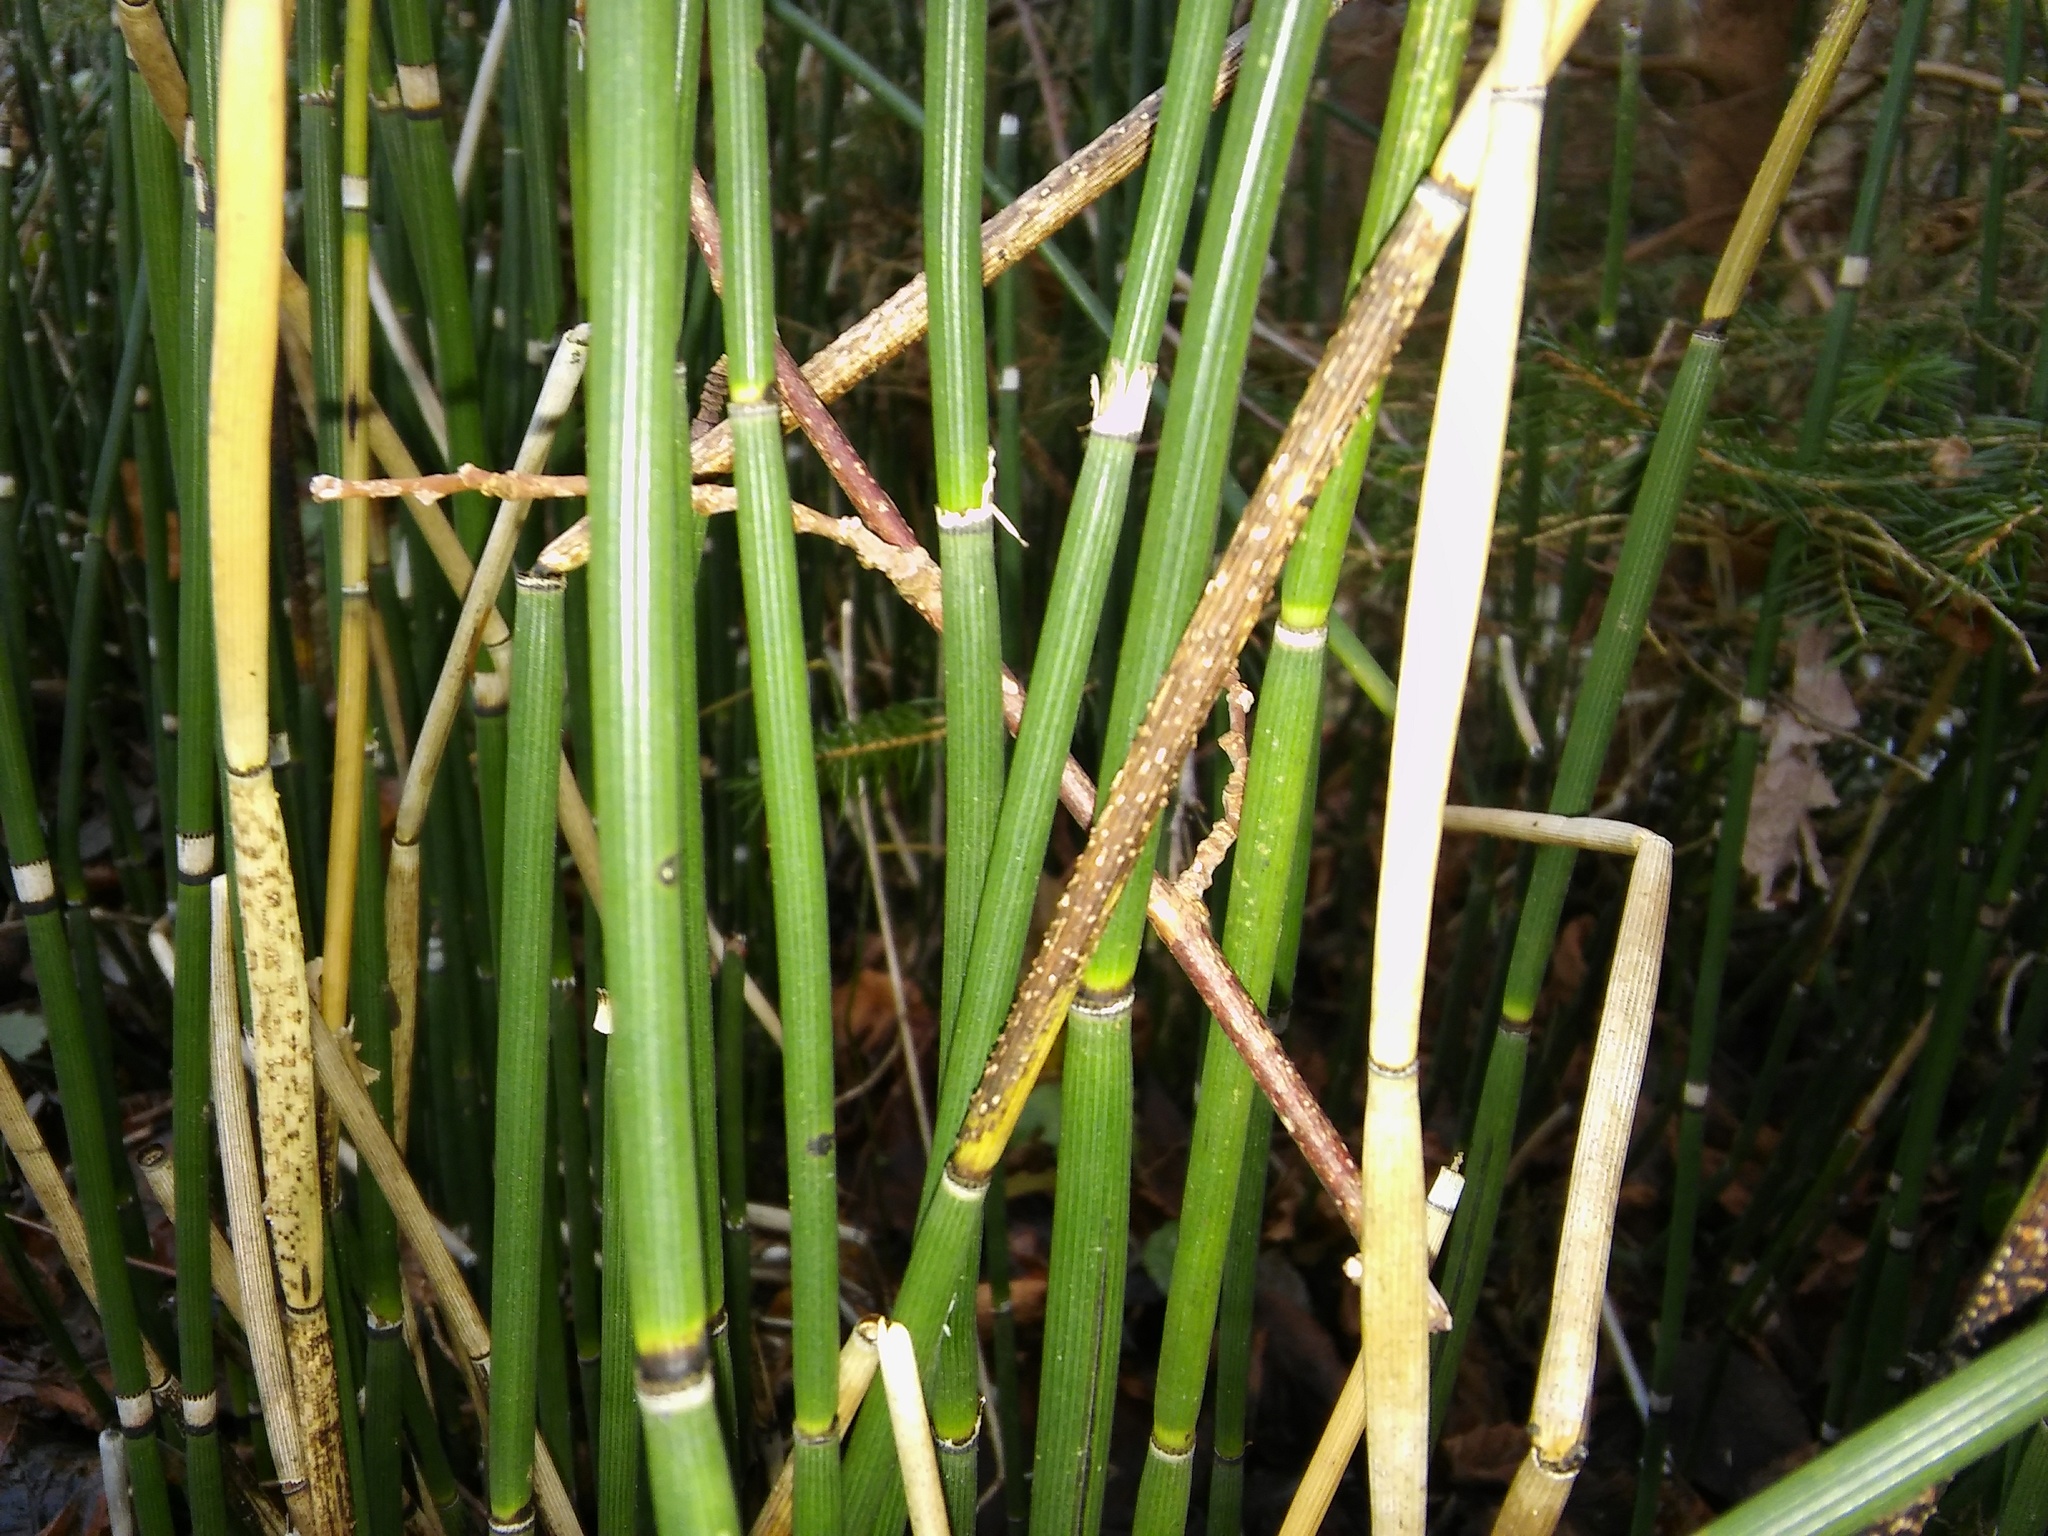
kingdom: Plantae
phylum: Tracheophyta
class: Polypodiopsida
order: Equisetales
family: Equisetaceae
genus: Equisetum
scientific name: Equisetum hyemale
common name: Rough horsetail
